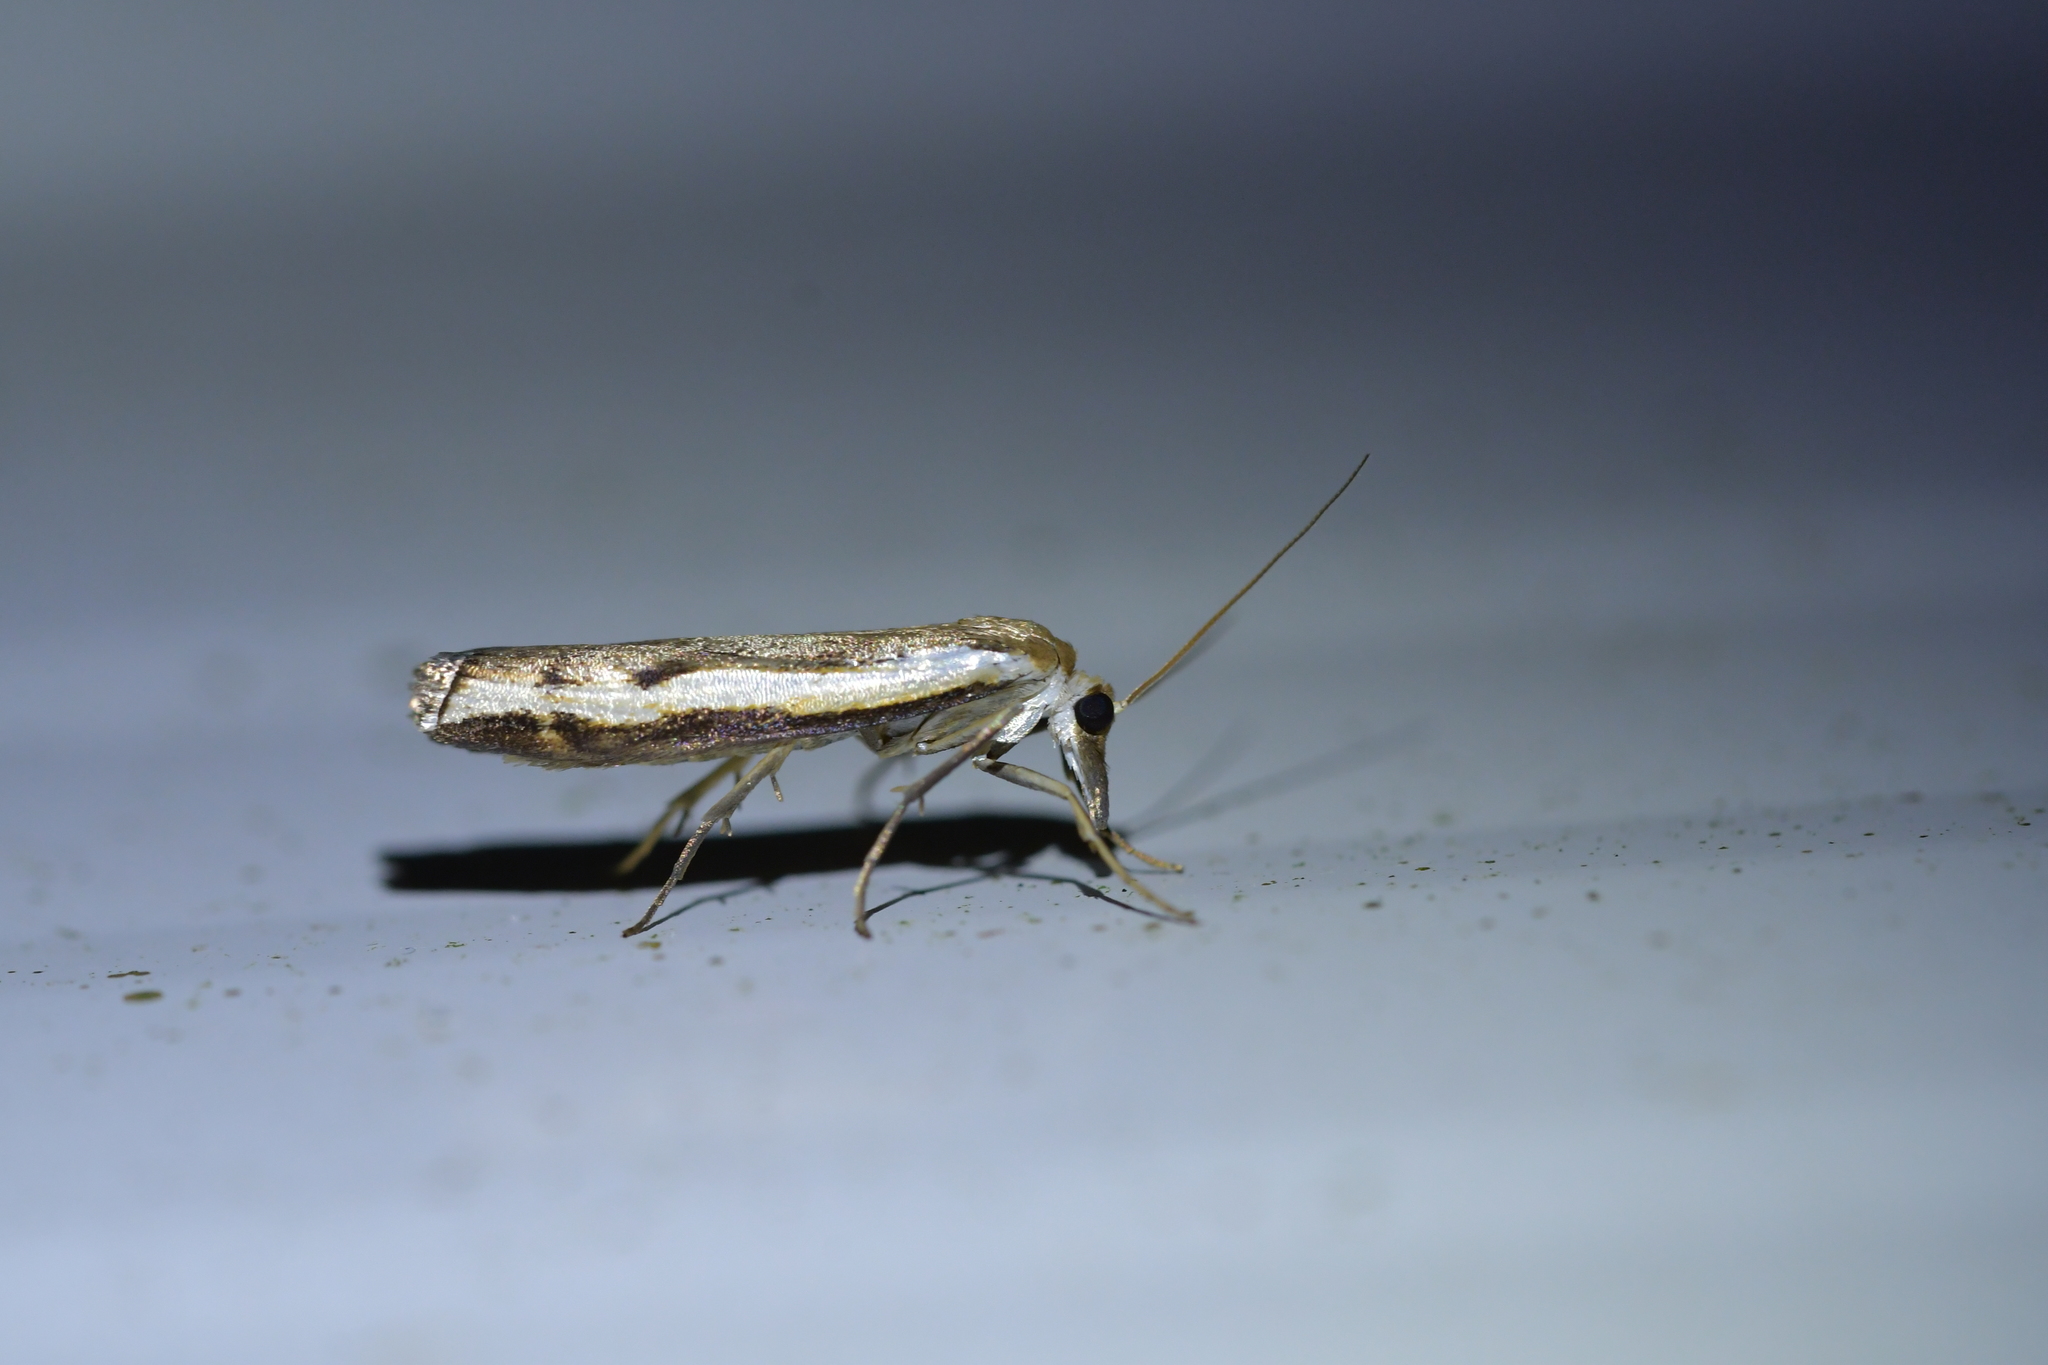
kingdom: Animalia
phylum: Arthropoda
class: Insecta
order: Lepidoptera
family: Crambidae
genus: Orocrambus
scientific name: Orocrambus flexuosellus
